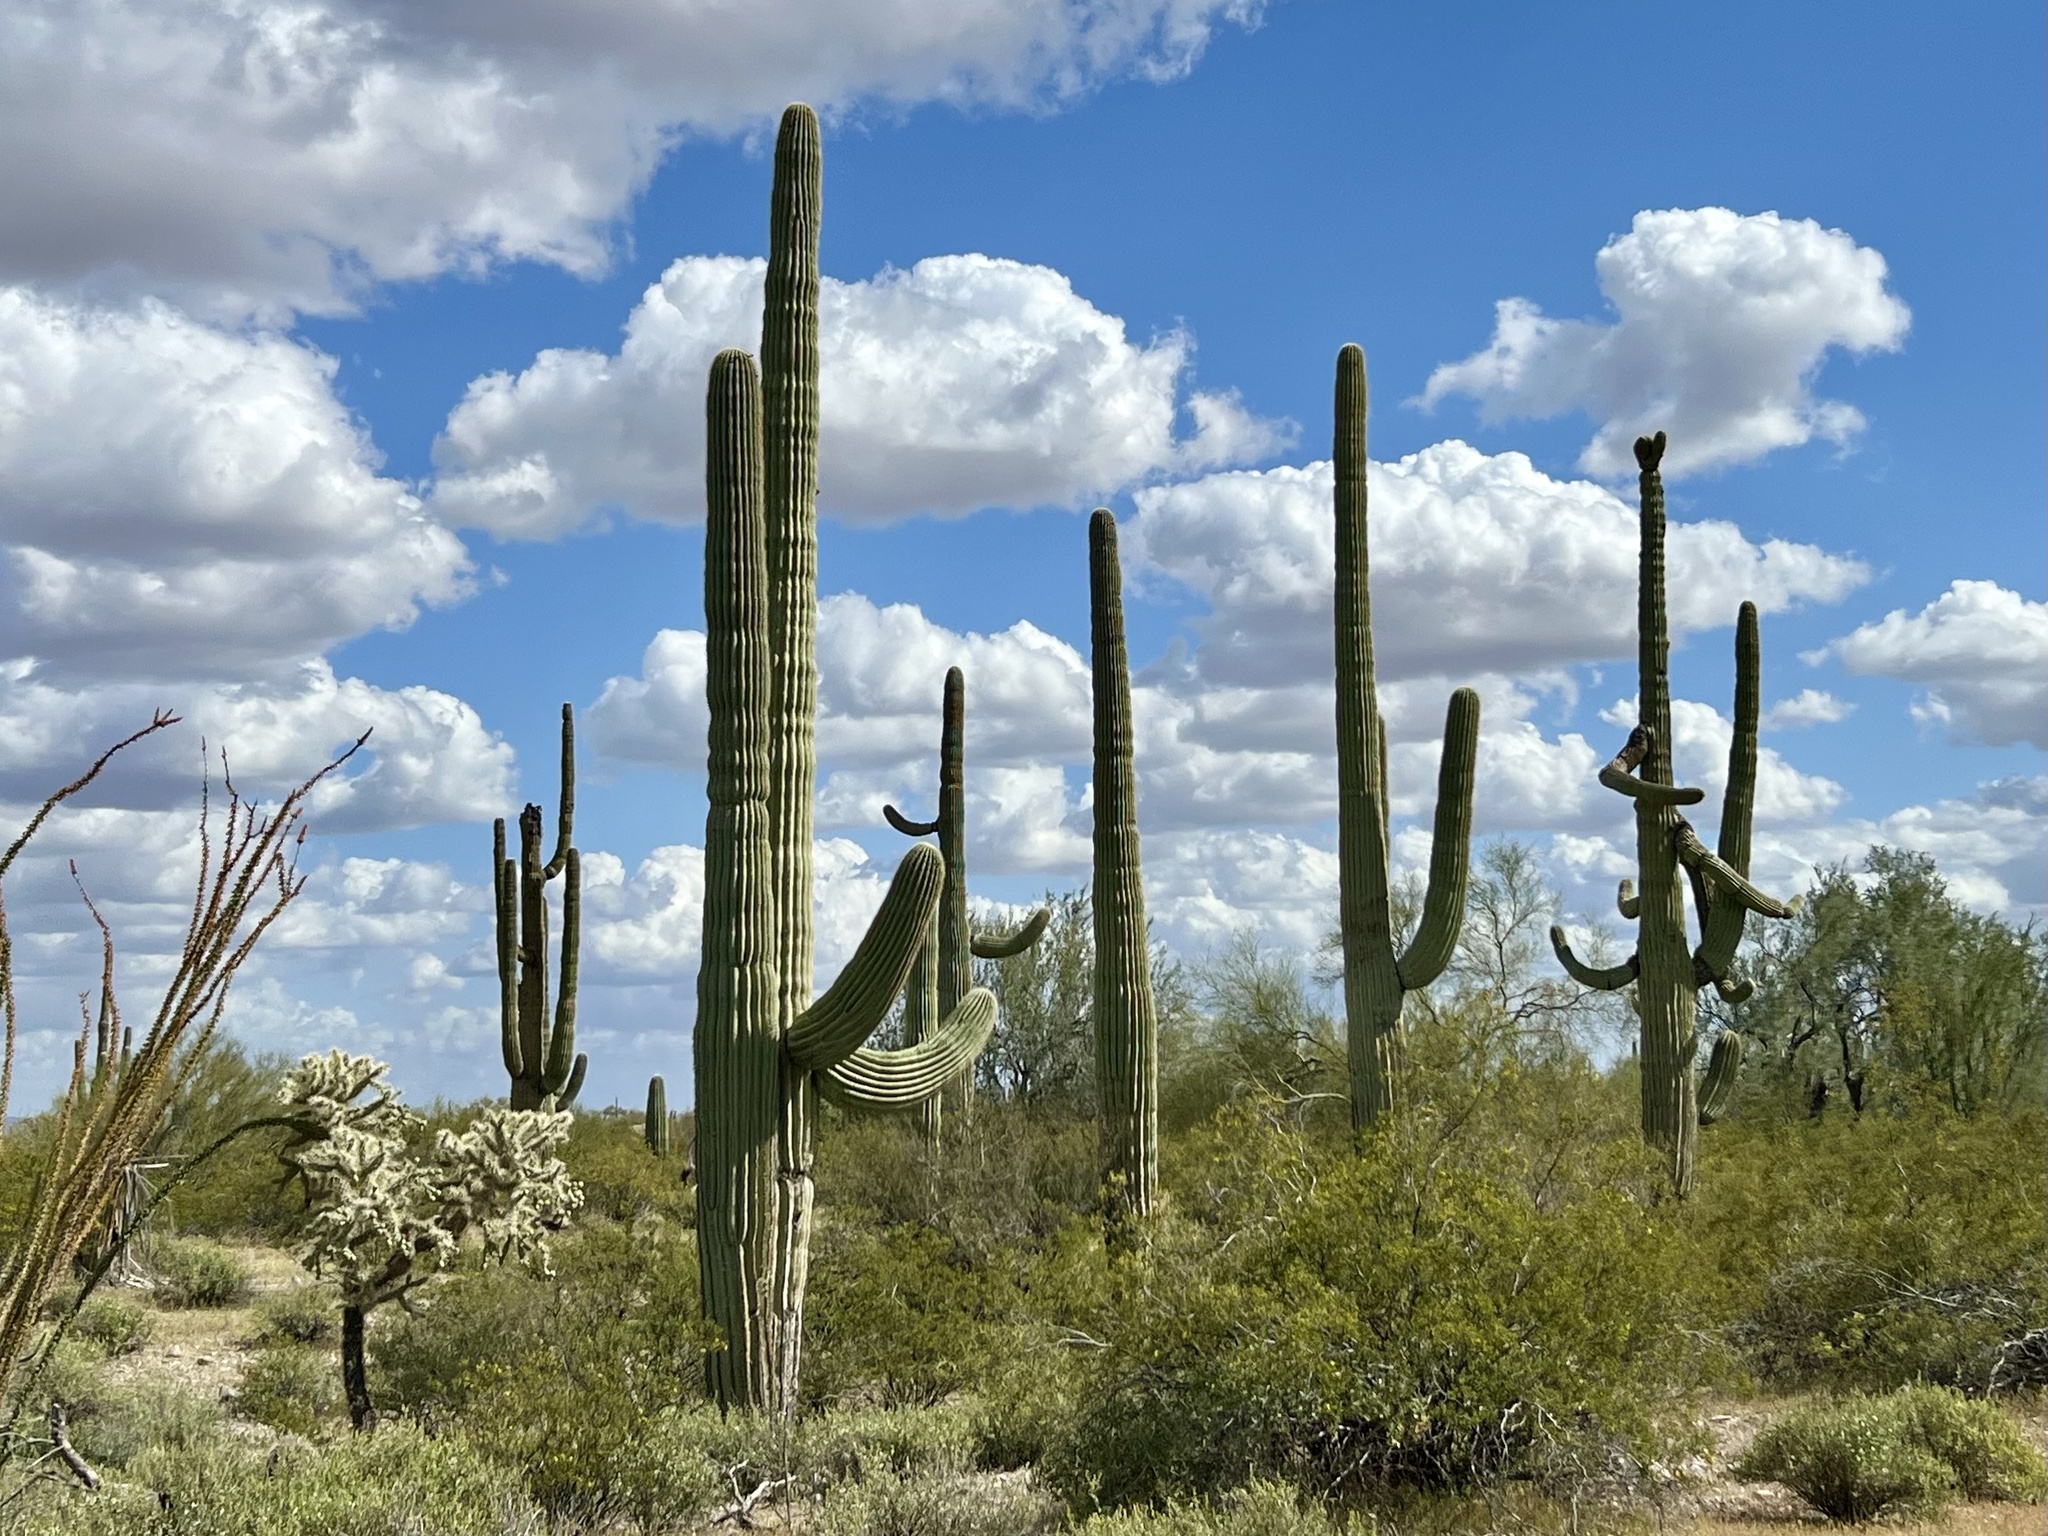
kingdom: Plantae
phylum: Tracheophyta
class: Magnoliopsida
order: Caryophyllales
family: Cactaceae
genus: Carnegiea
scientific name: Carnegiea gigantea
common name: Saguaro
